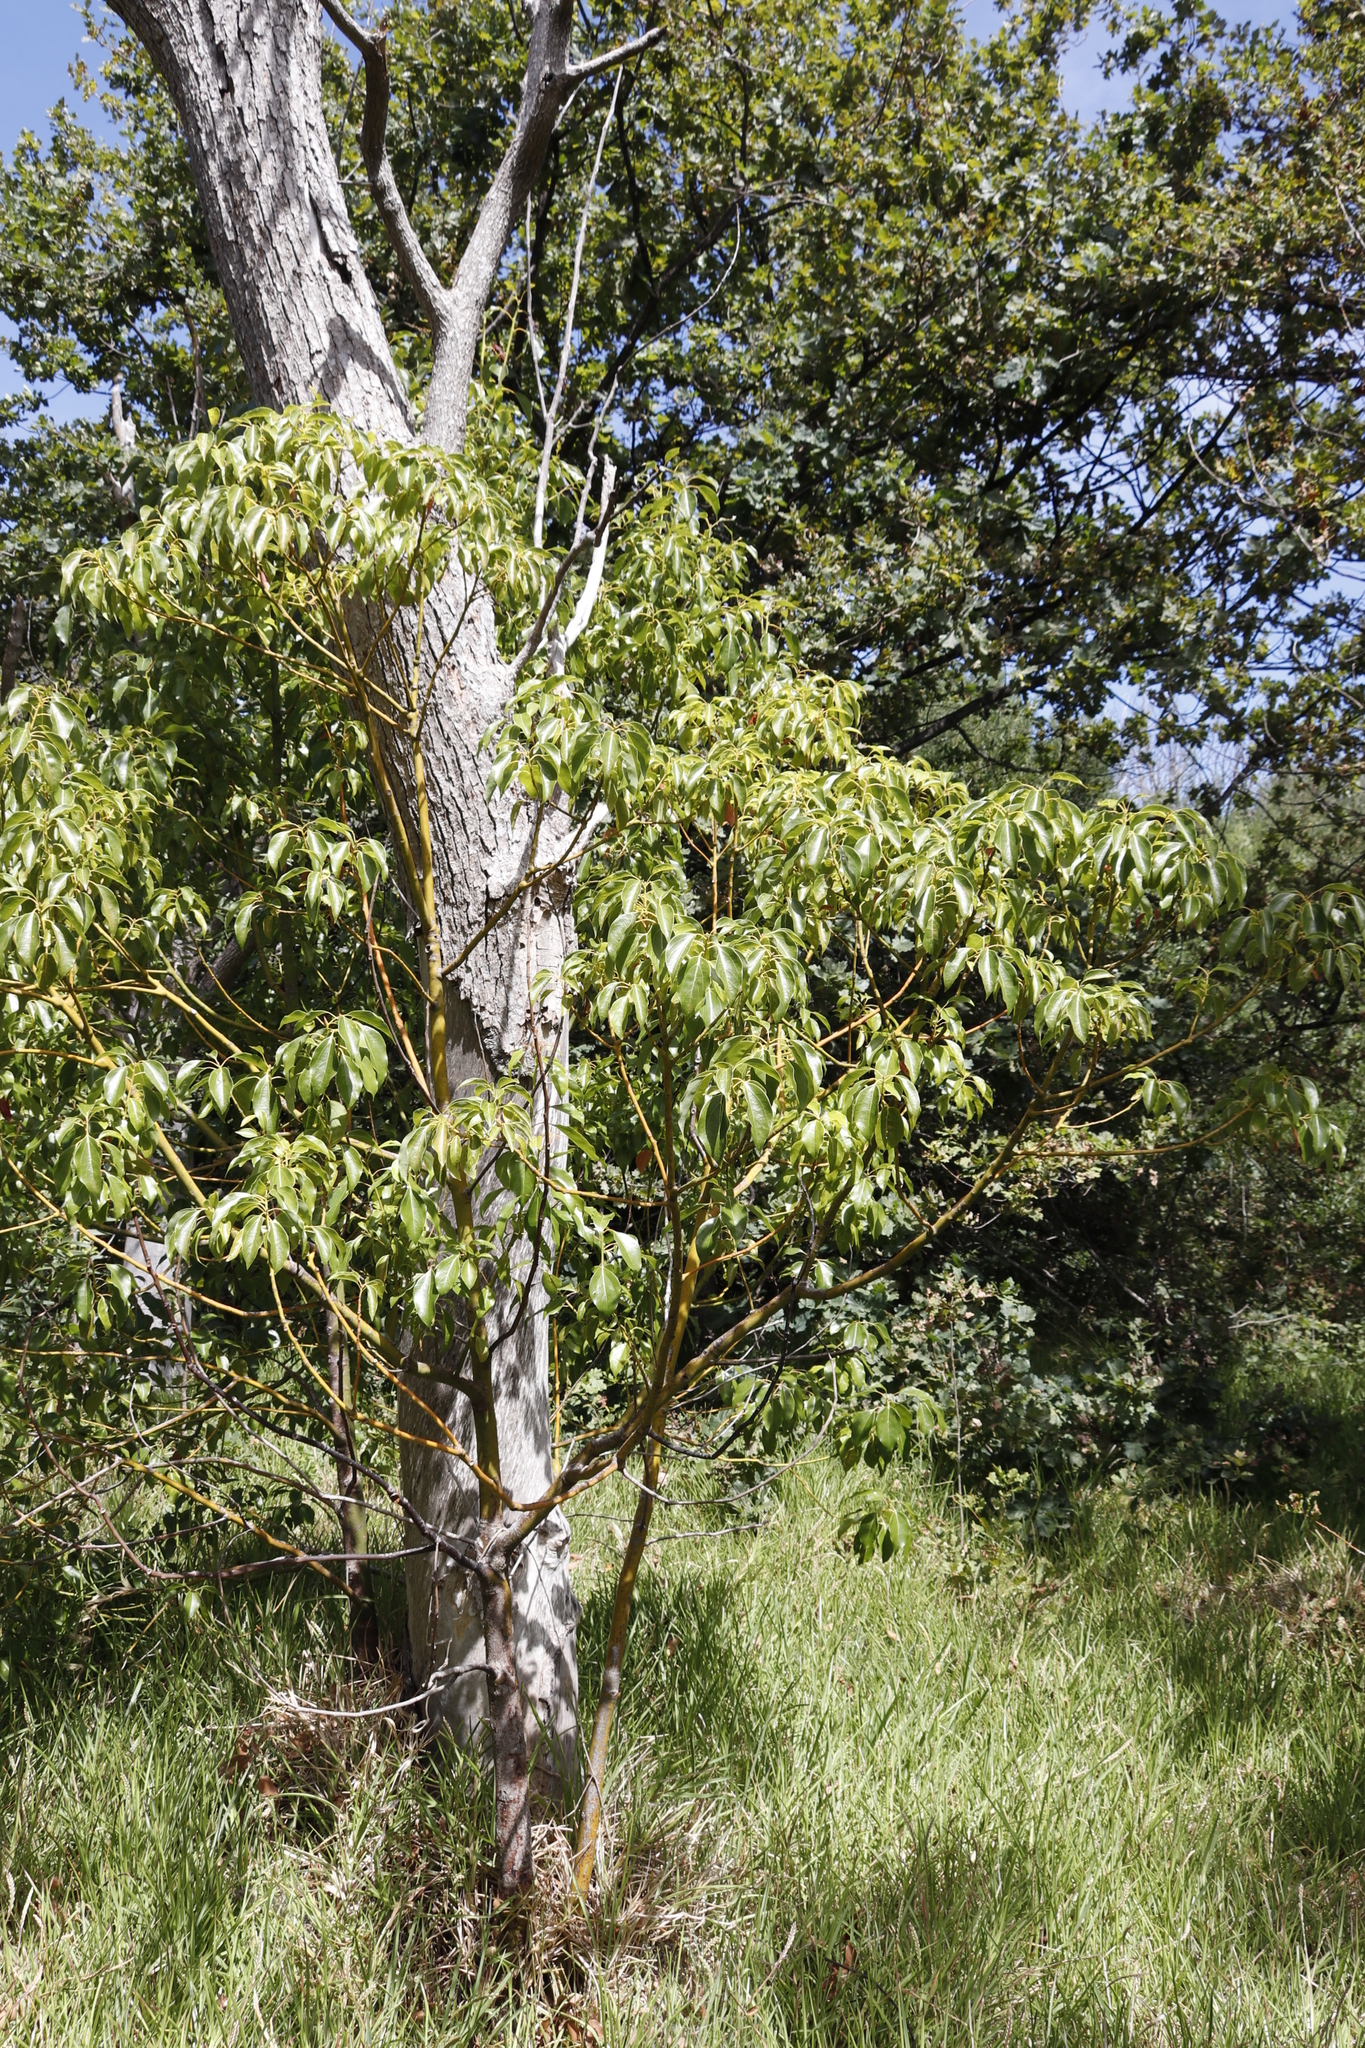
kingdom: Plantae
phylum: Tracheophyta
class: Magnoliopsida
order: Laurales
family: Lauraceae
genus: Cinnamomum
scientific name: Cinnamomum camphora
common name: Camphortree
